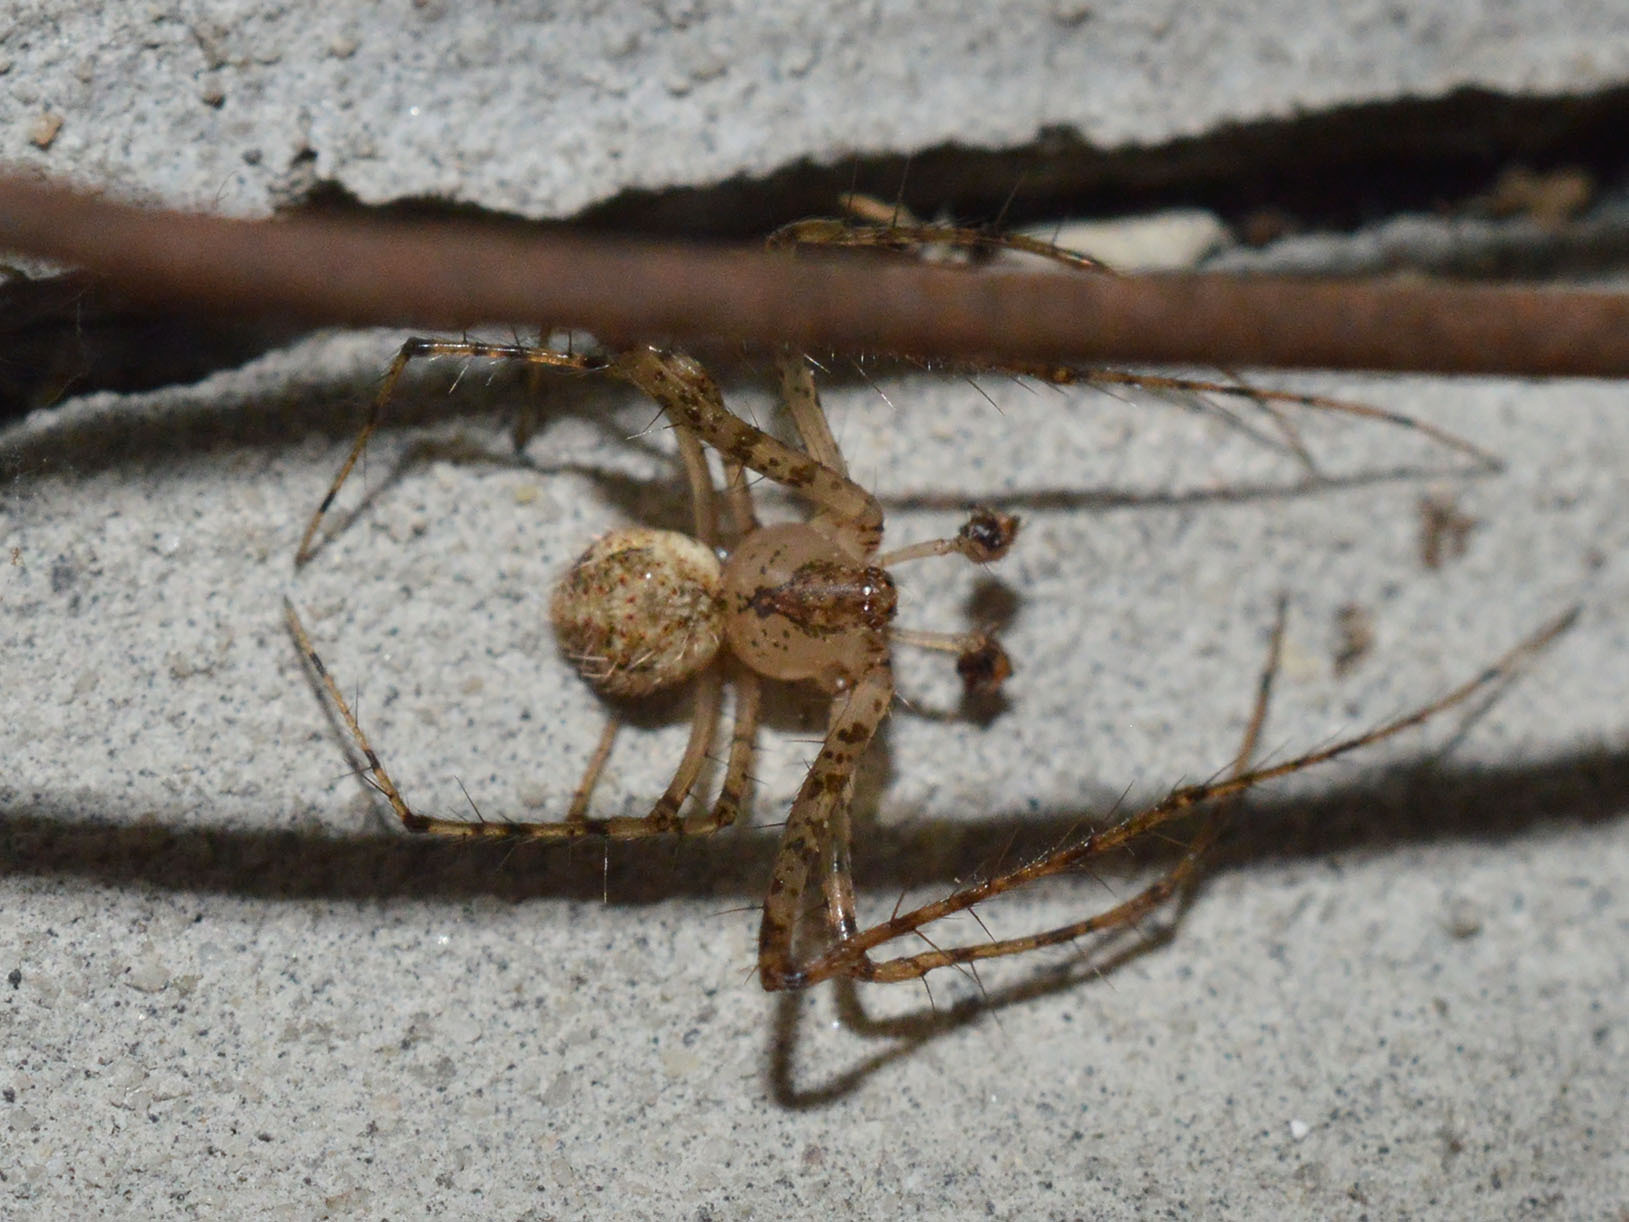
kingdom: Animalia
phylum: Arthropoda
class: Arachnida
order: Araneae
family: Mimetidae
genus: Mimetus
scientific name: Mimetus laevigatus
